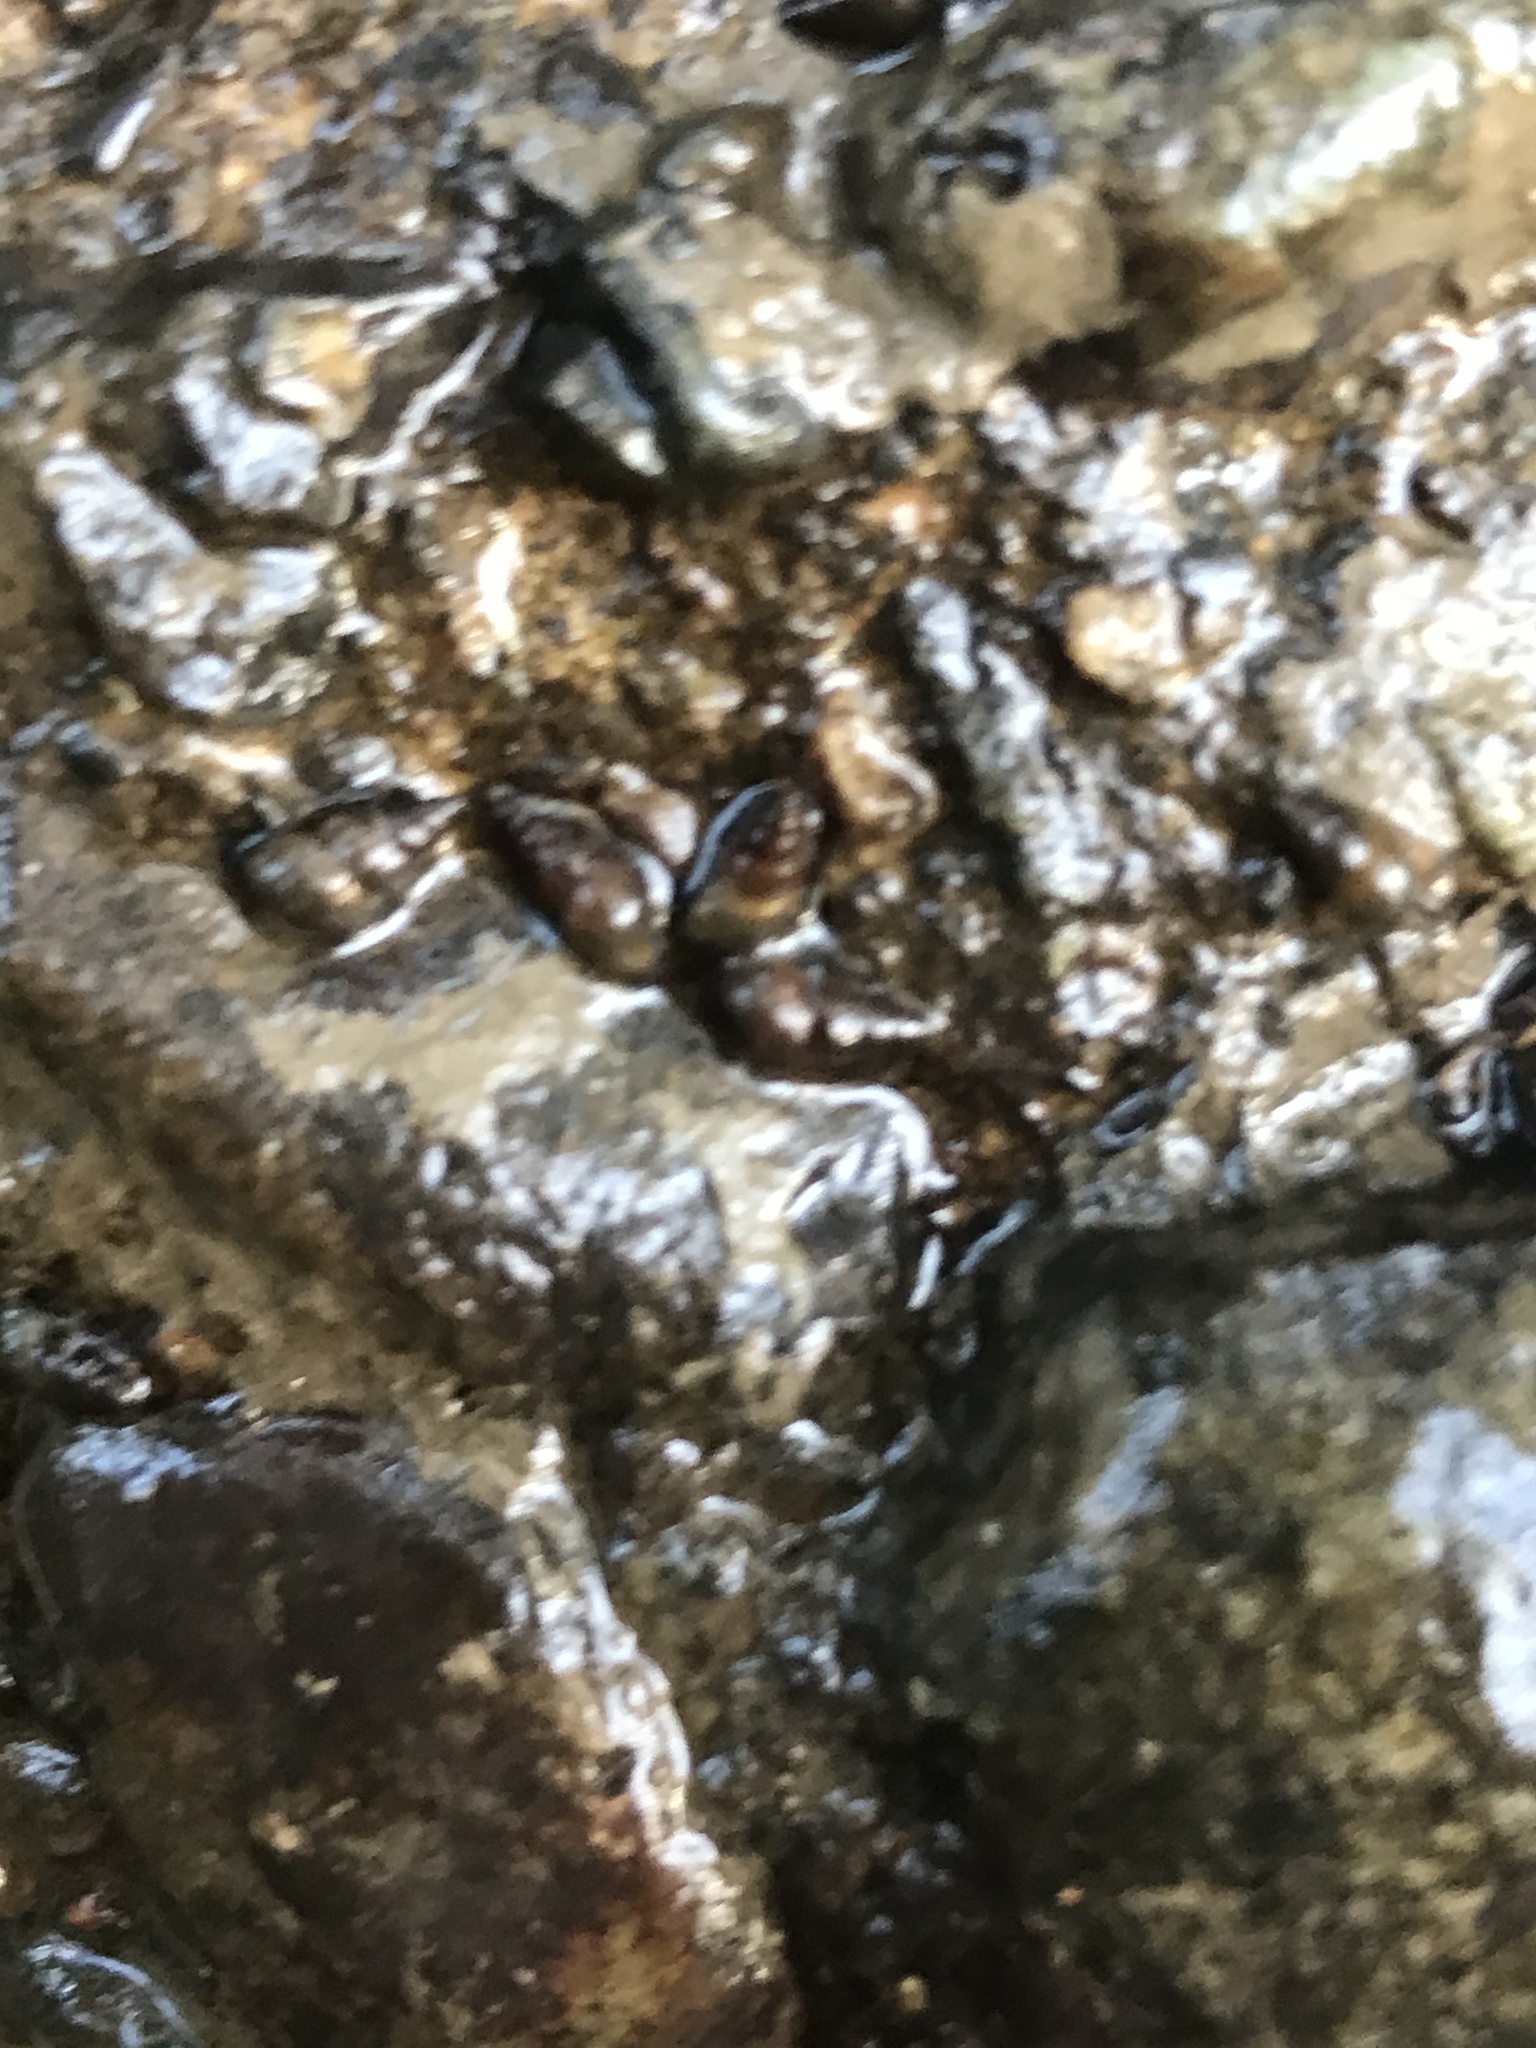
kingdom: Animalia
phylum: Mollusca
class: Gastropoda
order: Littorinimorpha
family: Tateidae
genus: Potamopyrgus
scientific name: Potamopyrgus antipodarum
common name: Jenkins' spire snail
